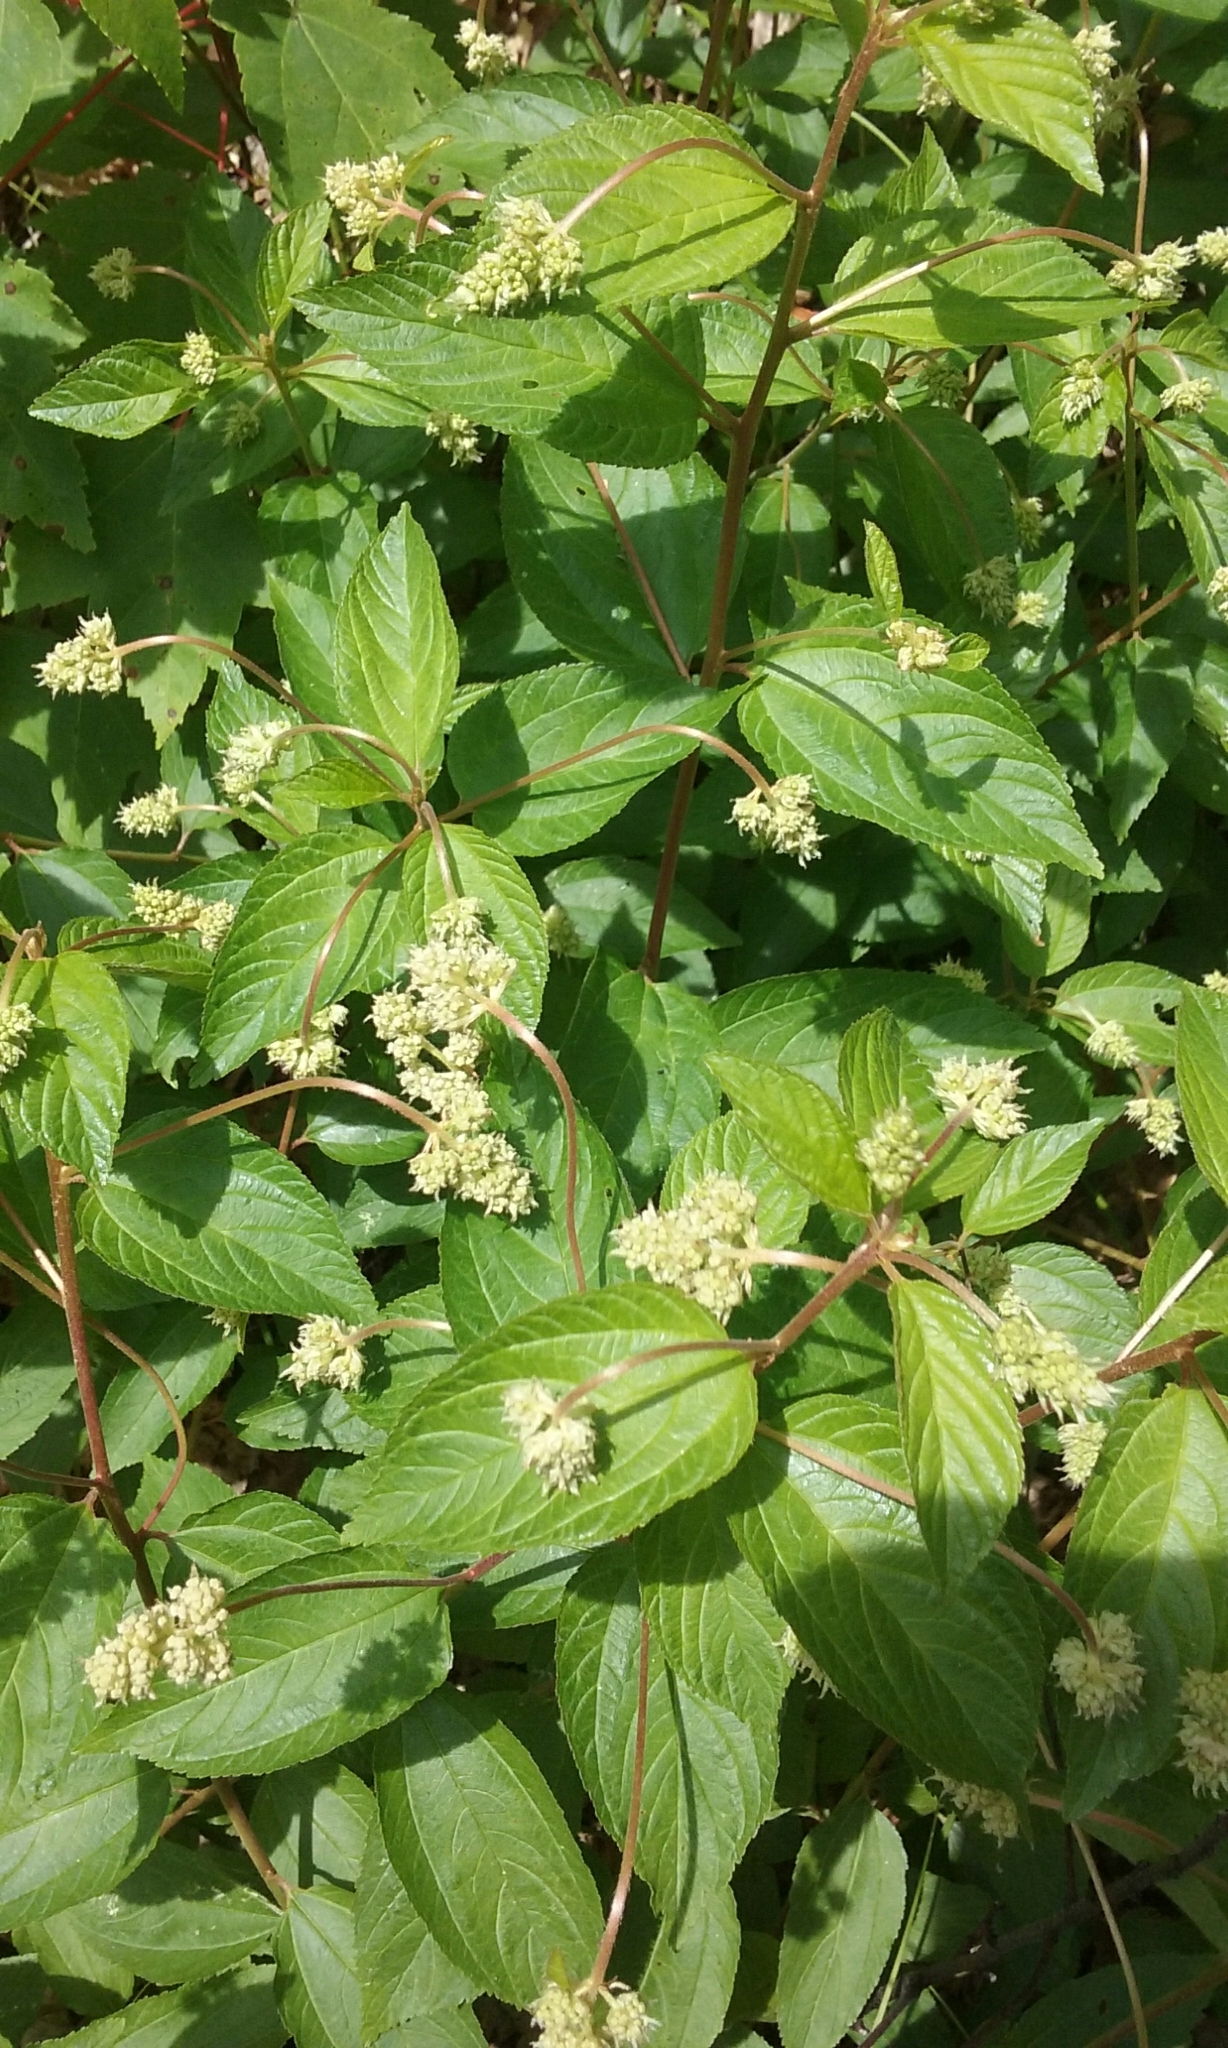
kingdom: Plantae
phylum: Tracheophyta
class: Magnoliopsida
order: Rosales
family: Rhamnaceae
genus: Ceanothus
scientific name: Ceanothus americanus
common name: Redroot
